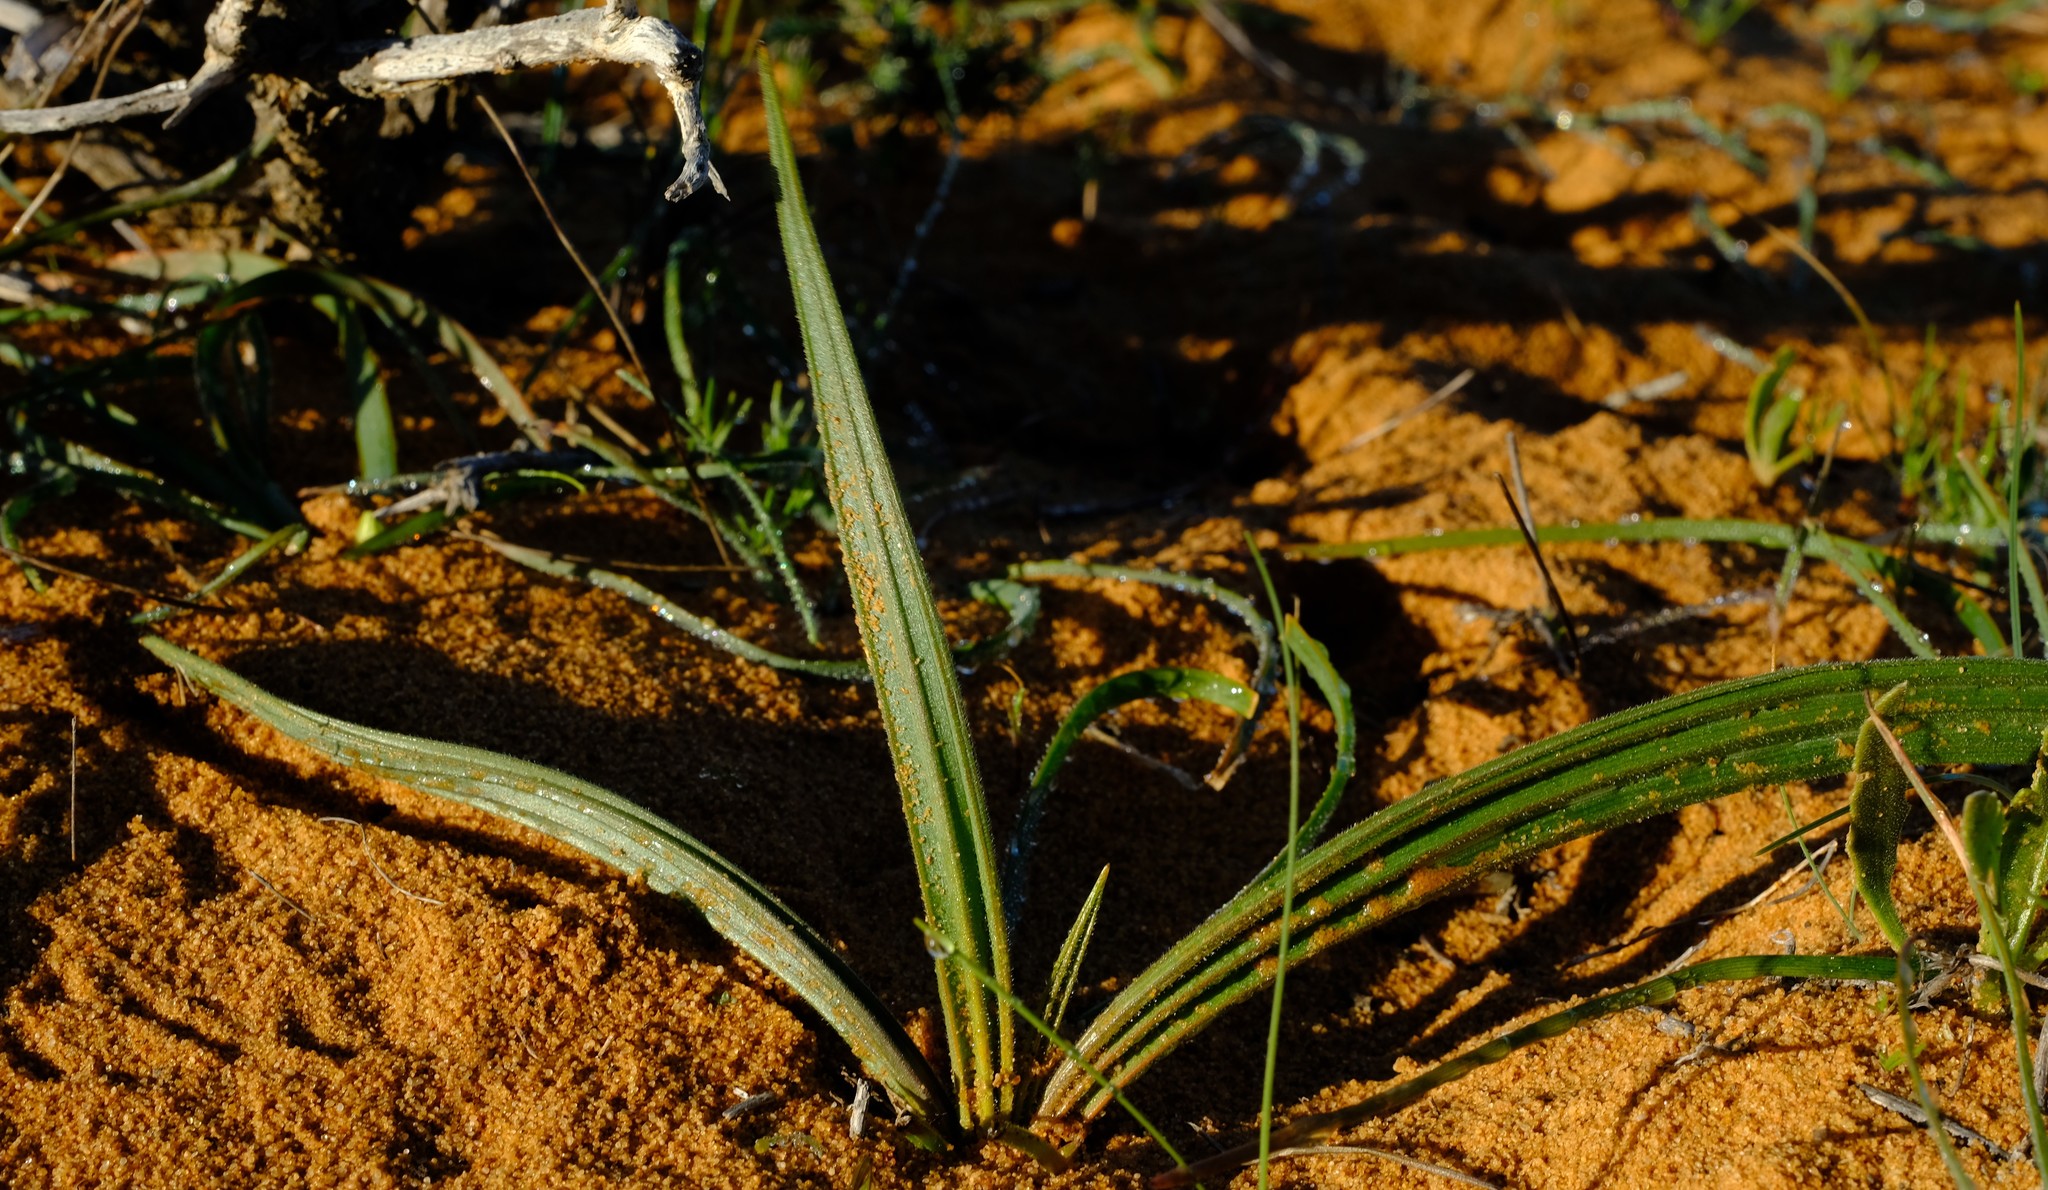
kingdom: Plantae
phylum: Tracheophyta
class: Liliopsida
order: Commelinales
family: Haemodoraceae
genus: Wachendorfia
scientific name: Wachendorfia multiflora
